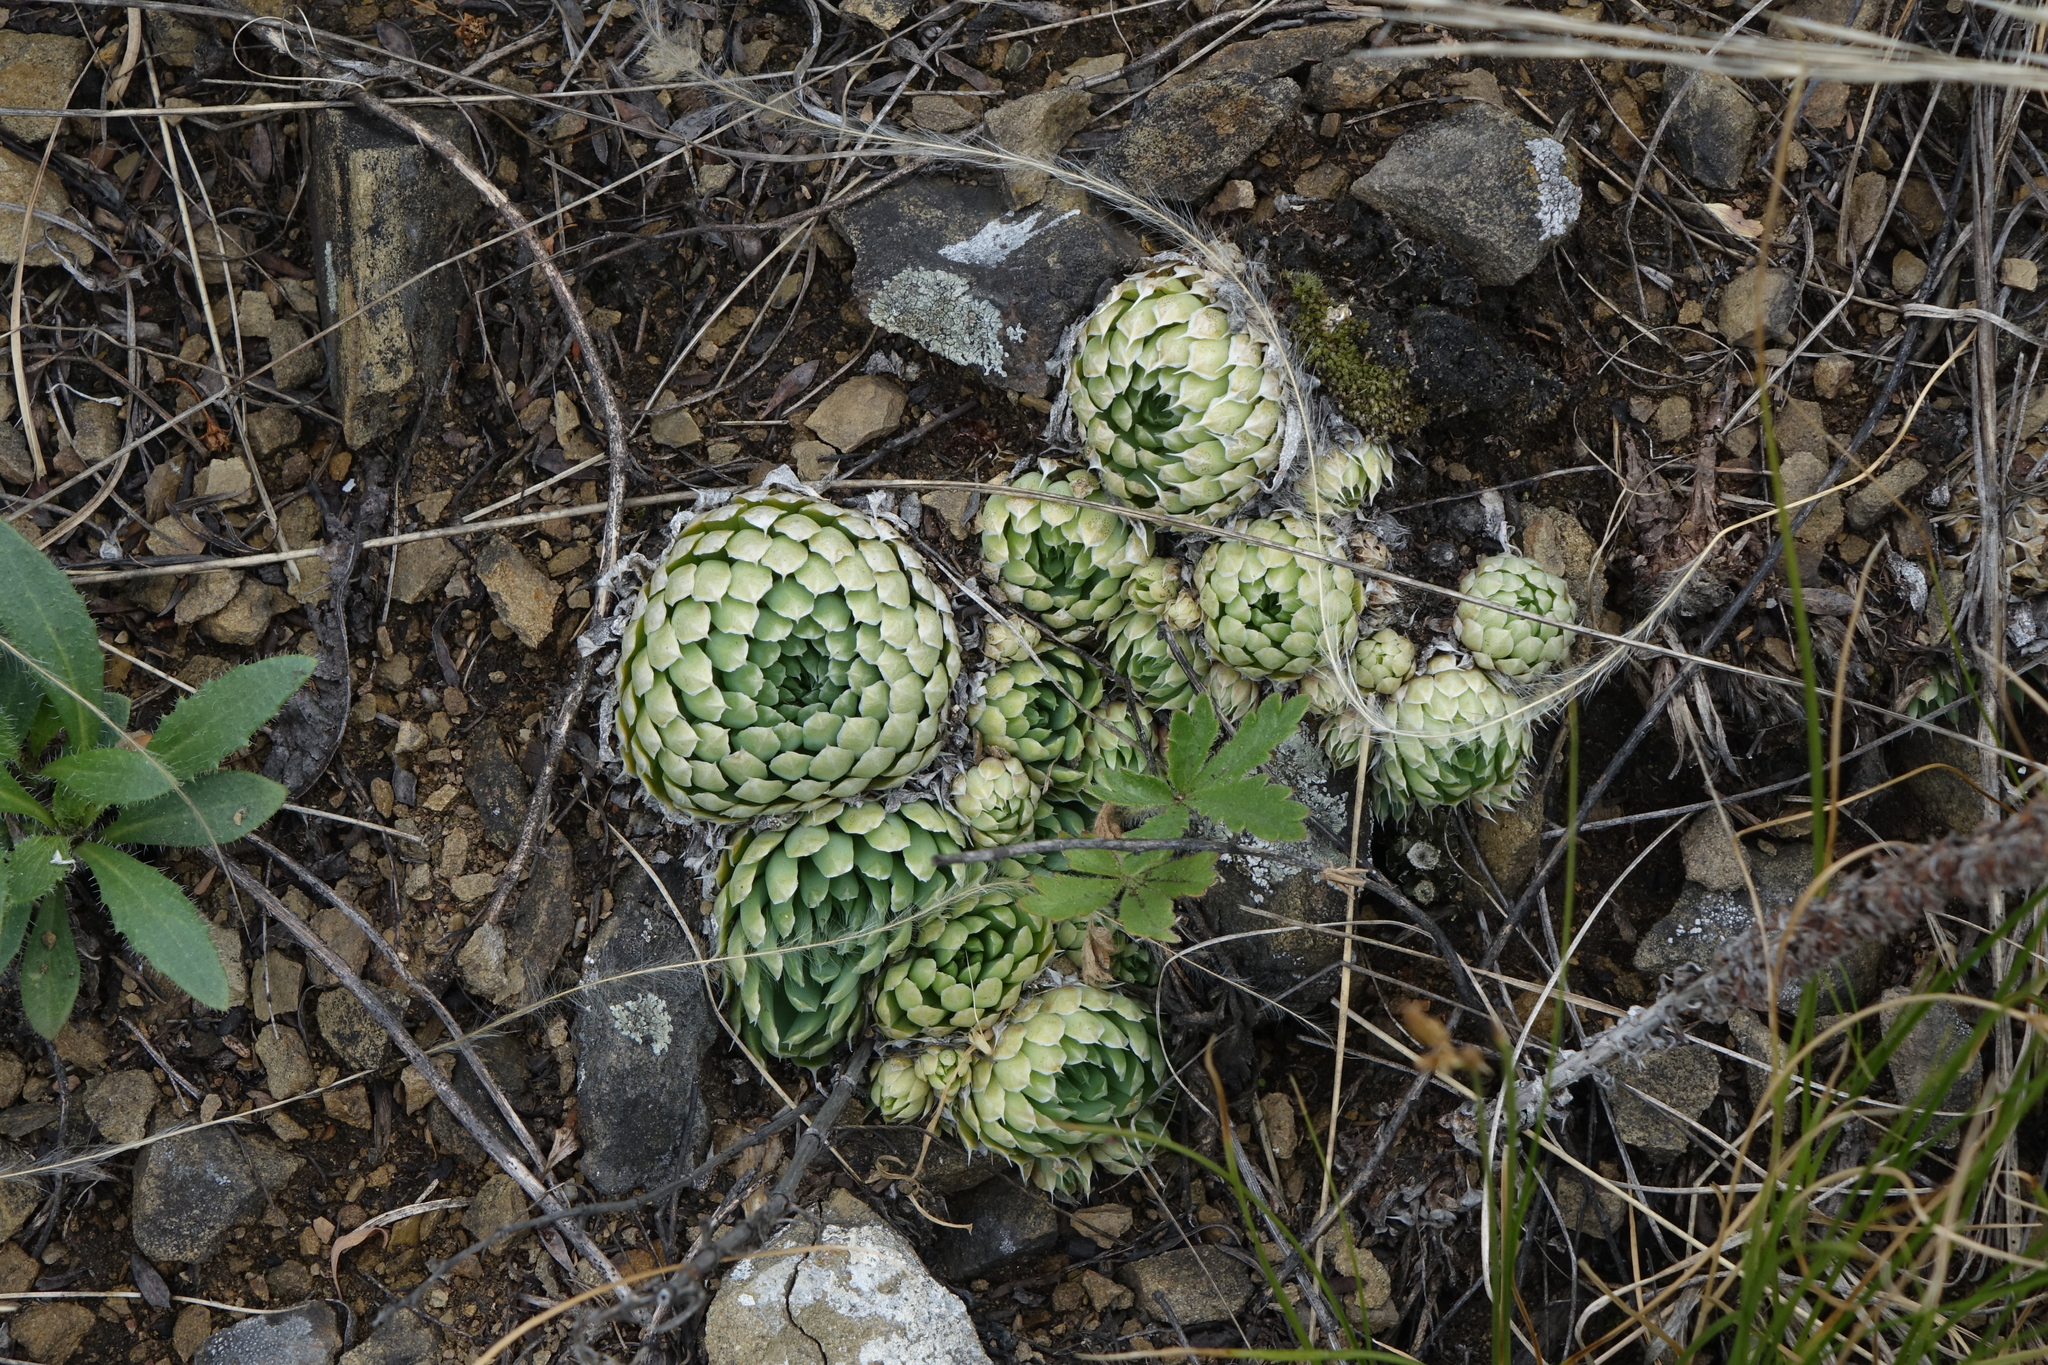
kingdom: Plantae
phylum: Tracheophyta
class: Magnoliopsida
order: Saxifragales
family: Crassulaceae
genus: Orostachys
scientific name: Orostachys spinosa
